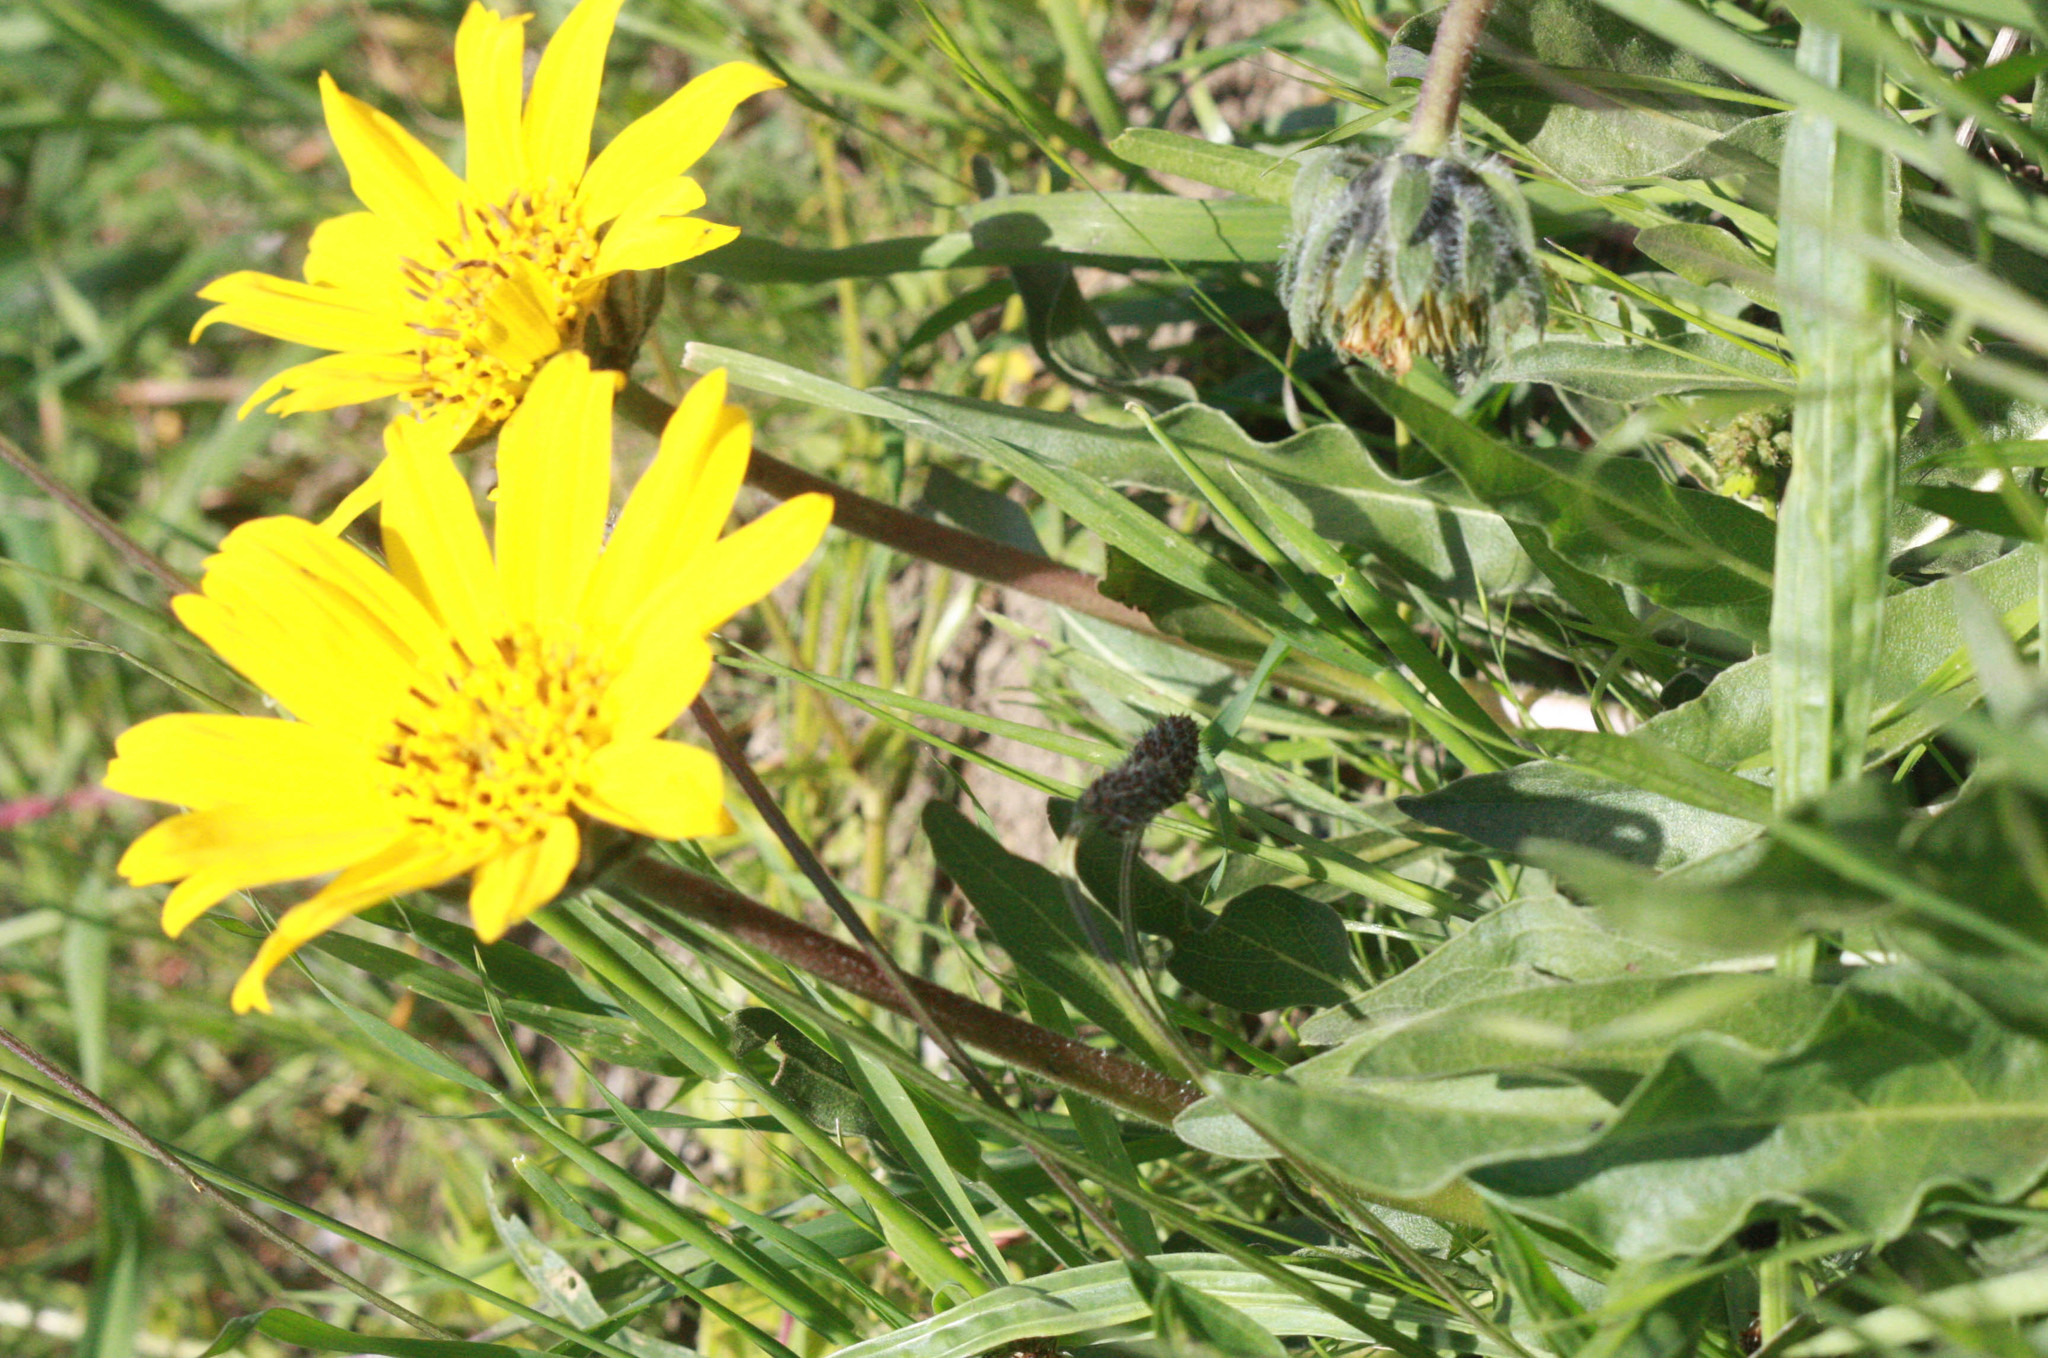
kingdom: Plantae
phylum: Tracheophyta
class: Magnoliopsida
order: Asterales
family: Asteraceae
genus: Wyethia
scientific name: Wyethia angustifolia
